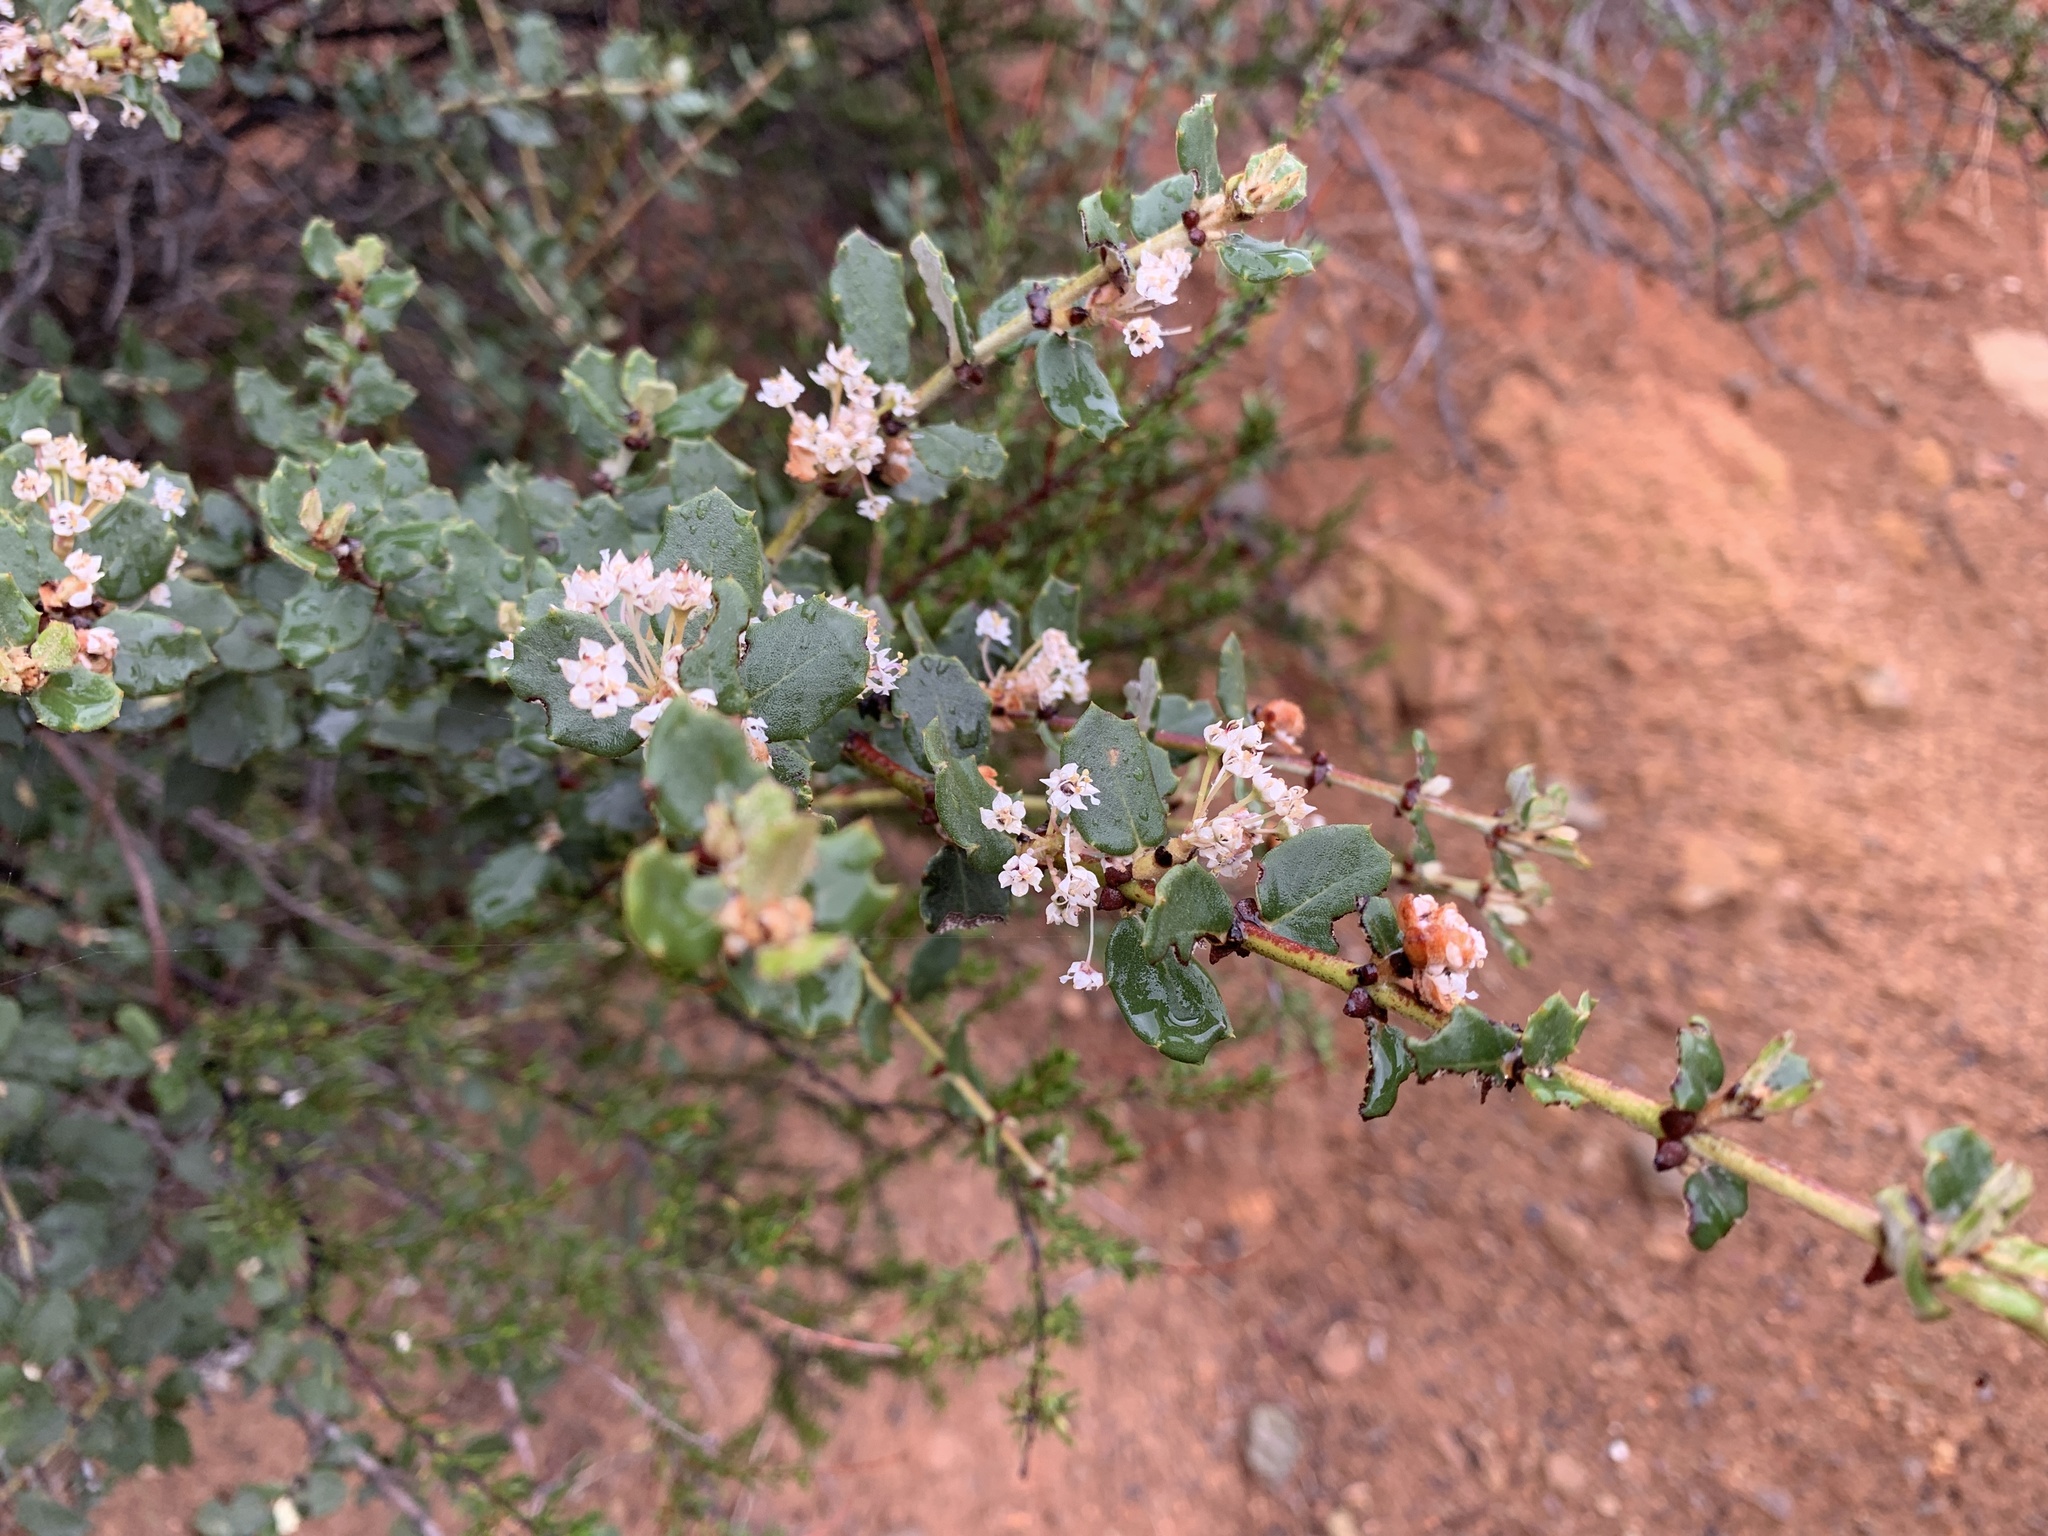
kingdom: Plantae
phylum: Tracheophyta
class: Magnoliopsida
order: Rosales
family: Rhamnaceae
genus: Ceanothus
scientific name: Ceanothus crassifolius
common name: Hoaryleaf ceanothus
